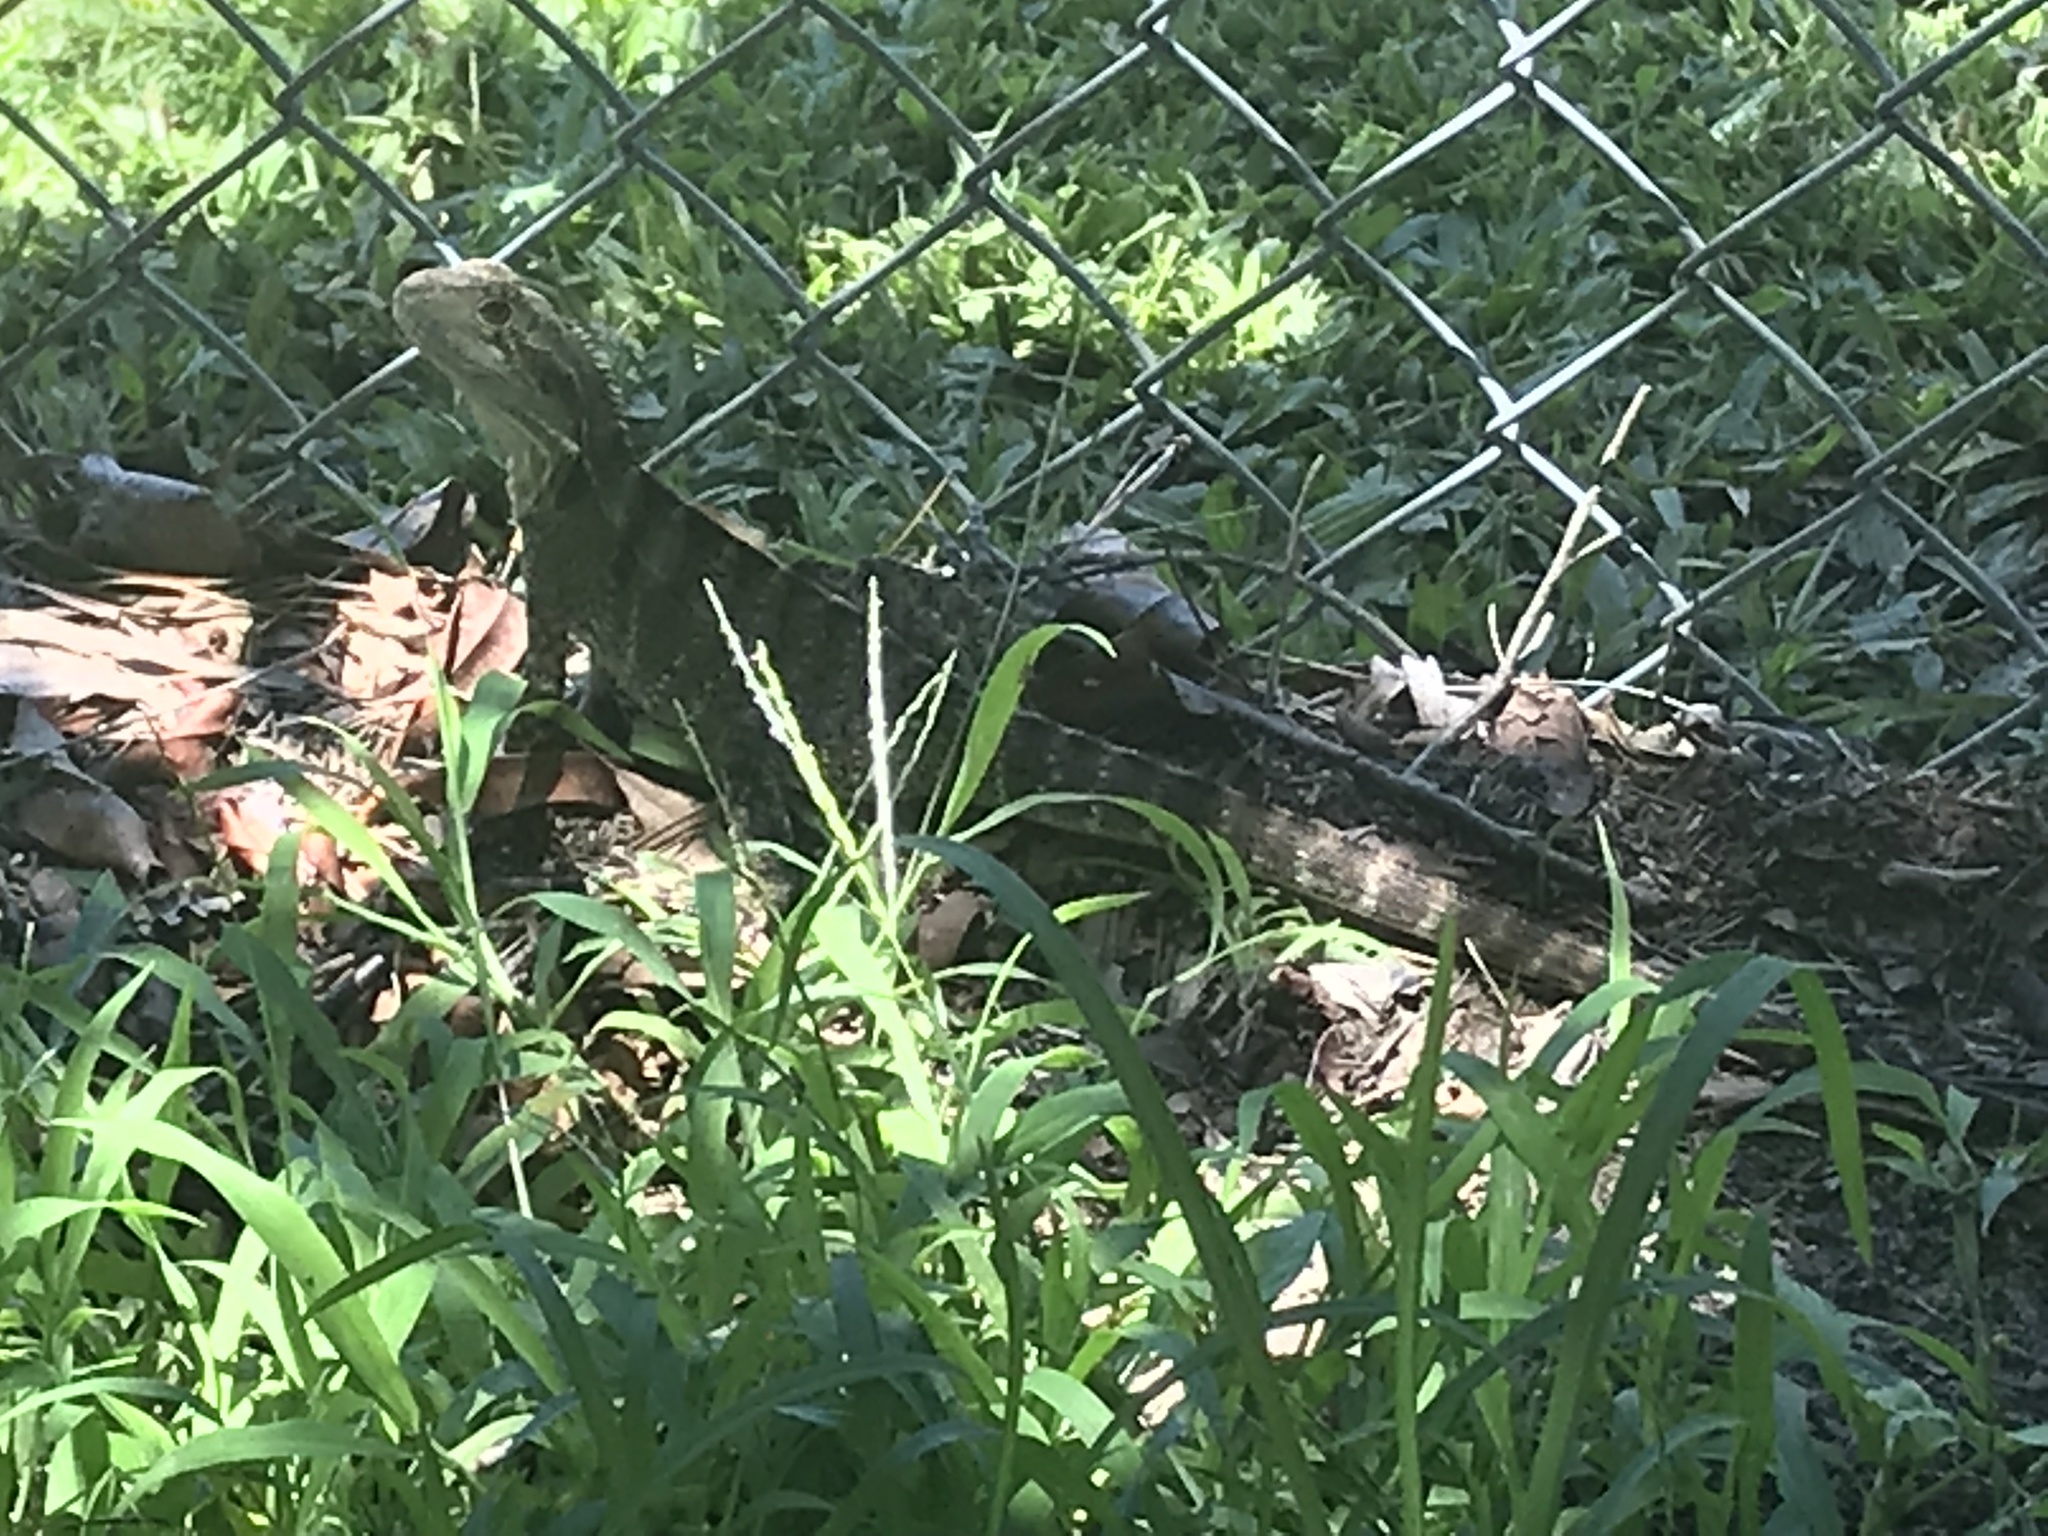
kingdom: Animalia
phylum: Chordata
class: Squamata
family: Agamidae
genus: Intellagama
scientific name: Intellagama lesueurii
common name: Eastern water dragon
